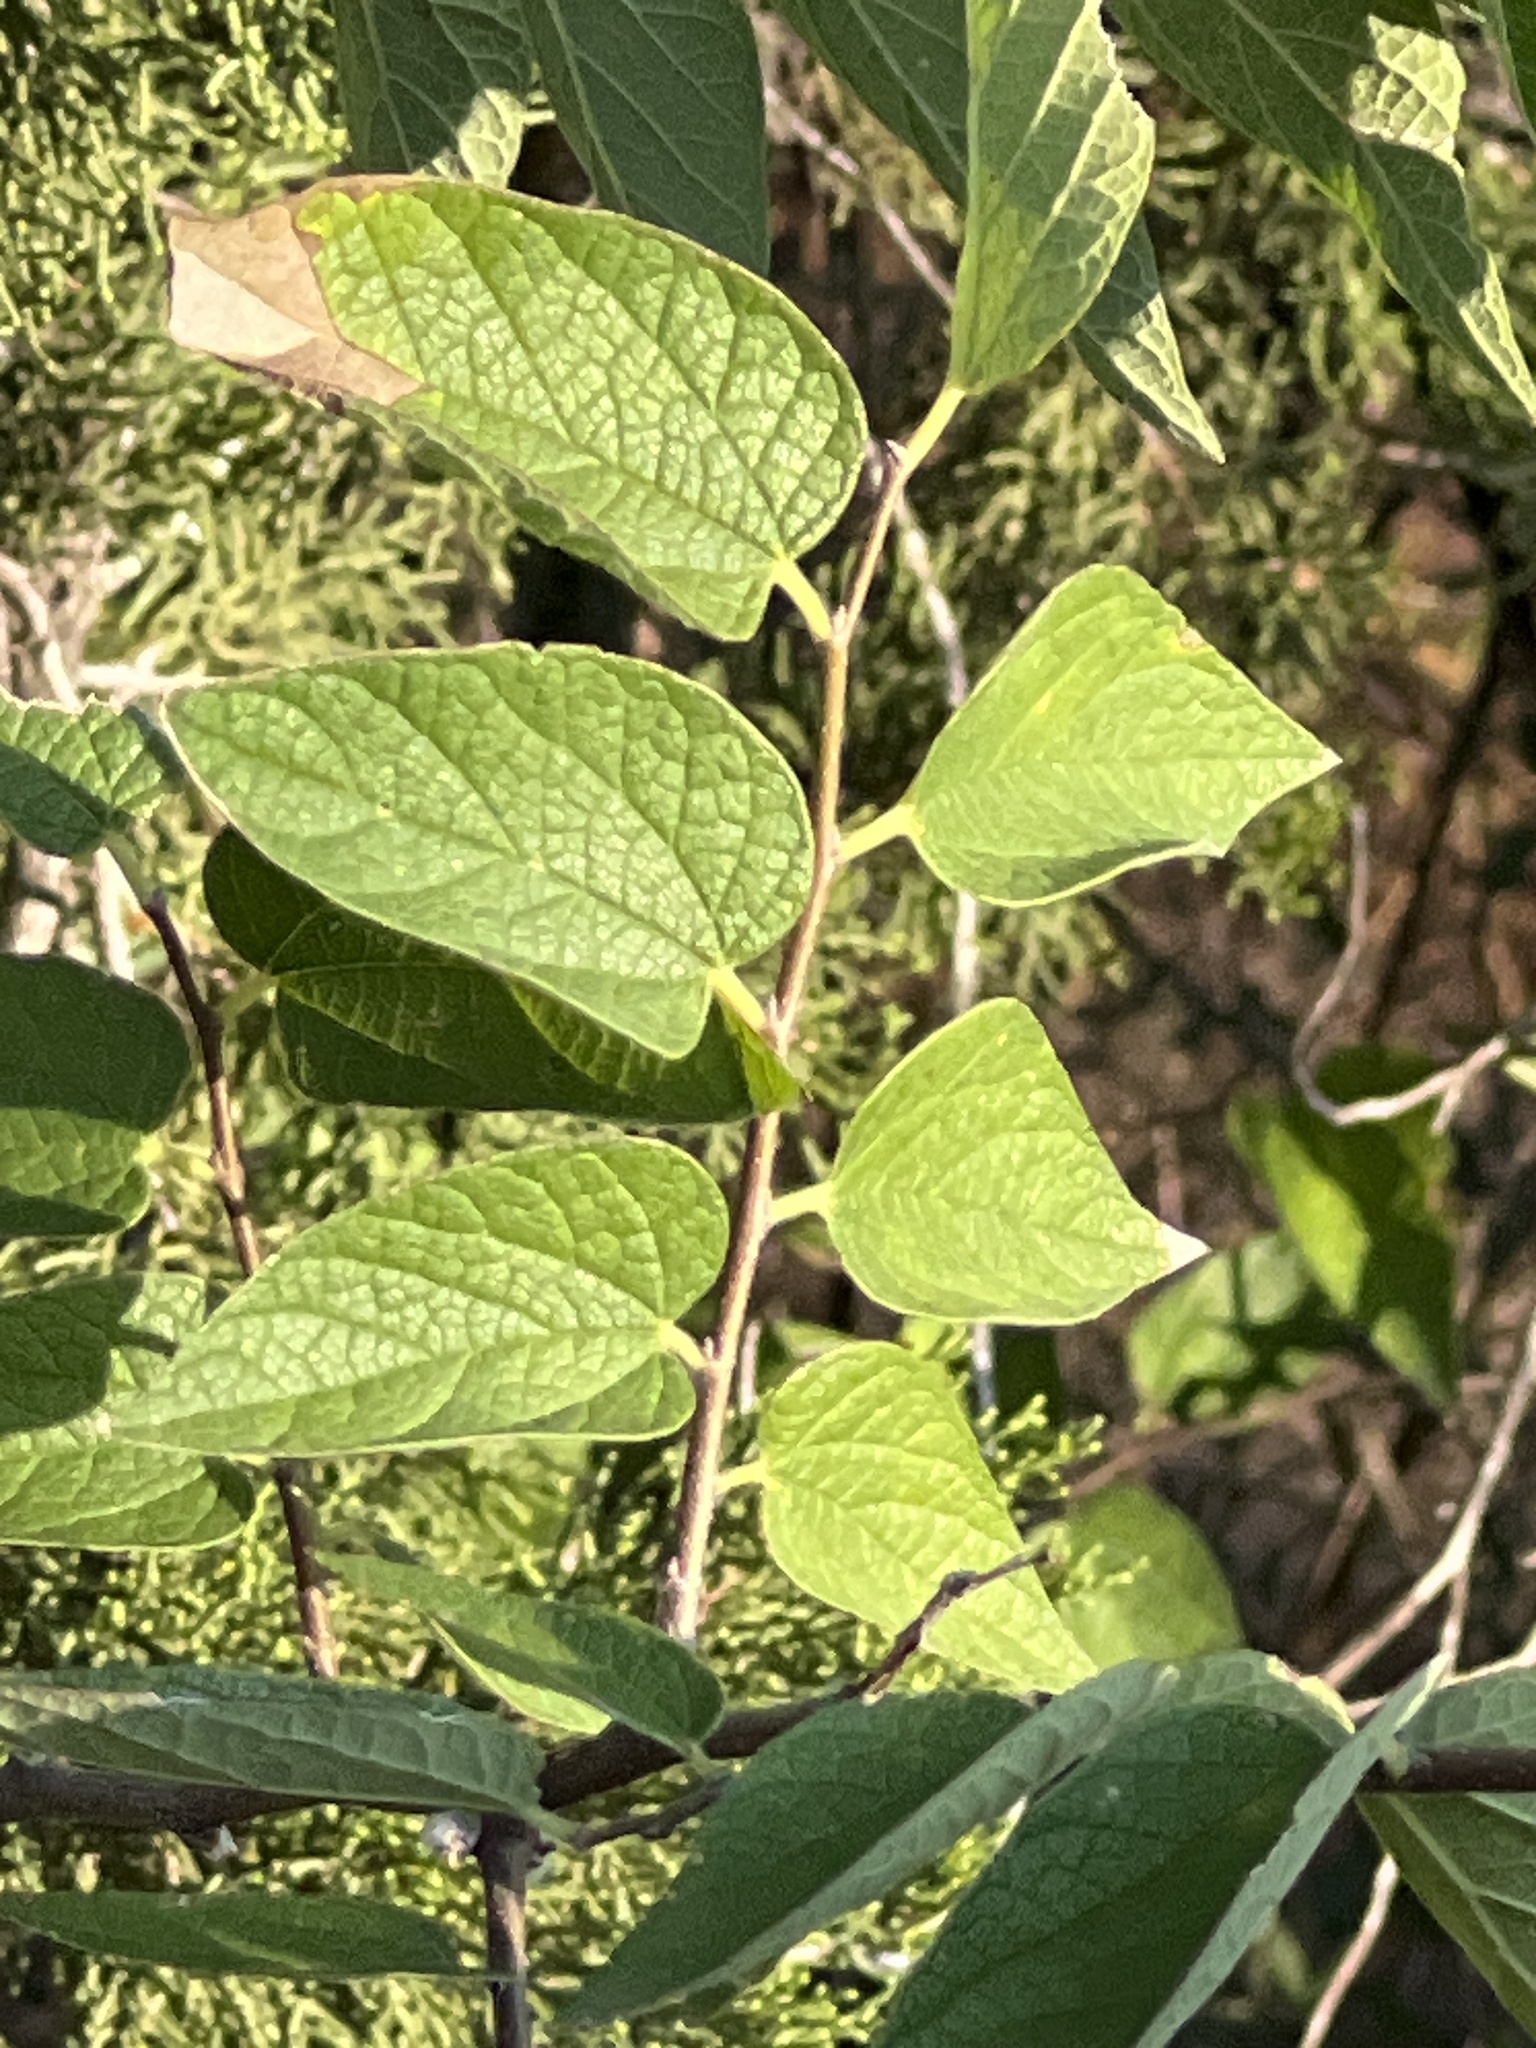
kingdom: Plantae
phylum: Tracheophyta
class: Magnoliopsida
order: Rosales
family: Cannabaceae
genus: Celtis
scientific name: Celtis reticulata
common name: Netleaf hackberry
